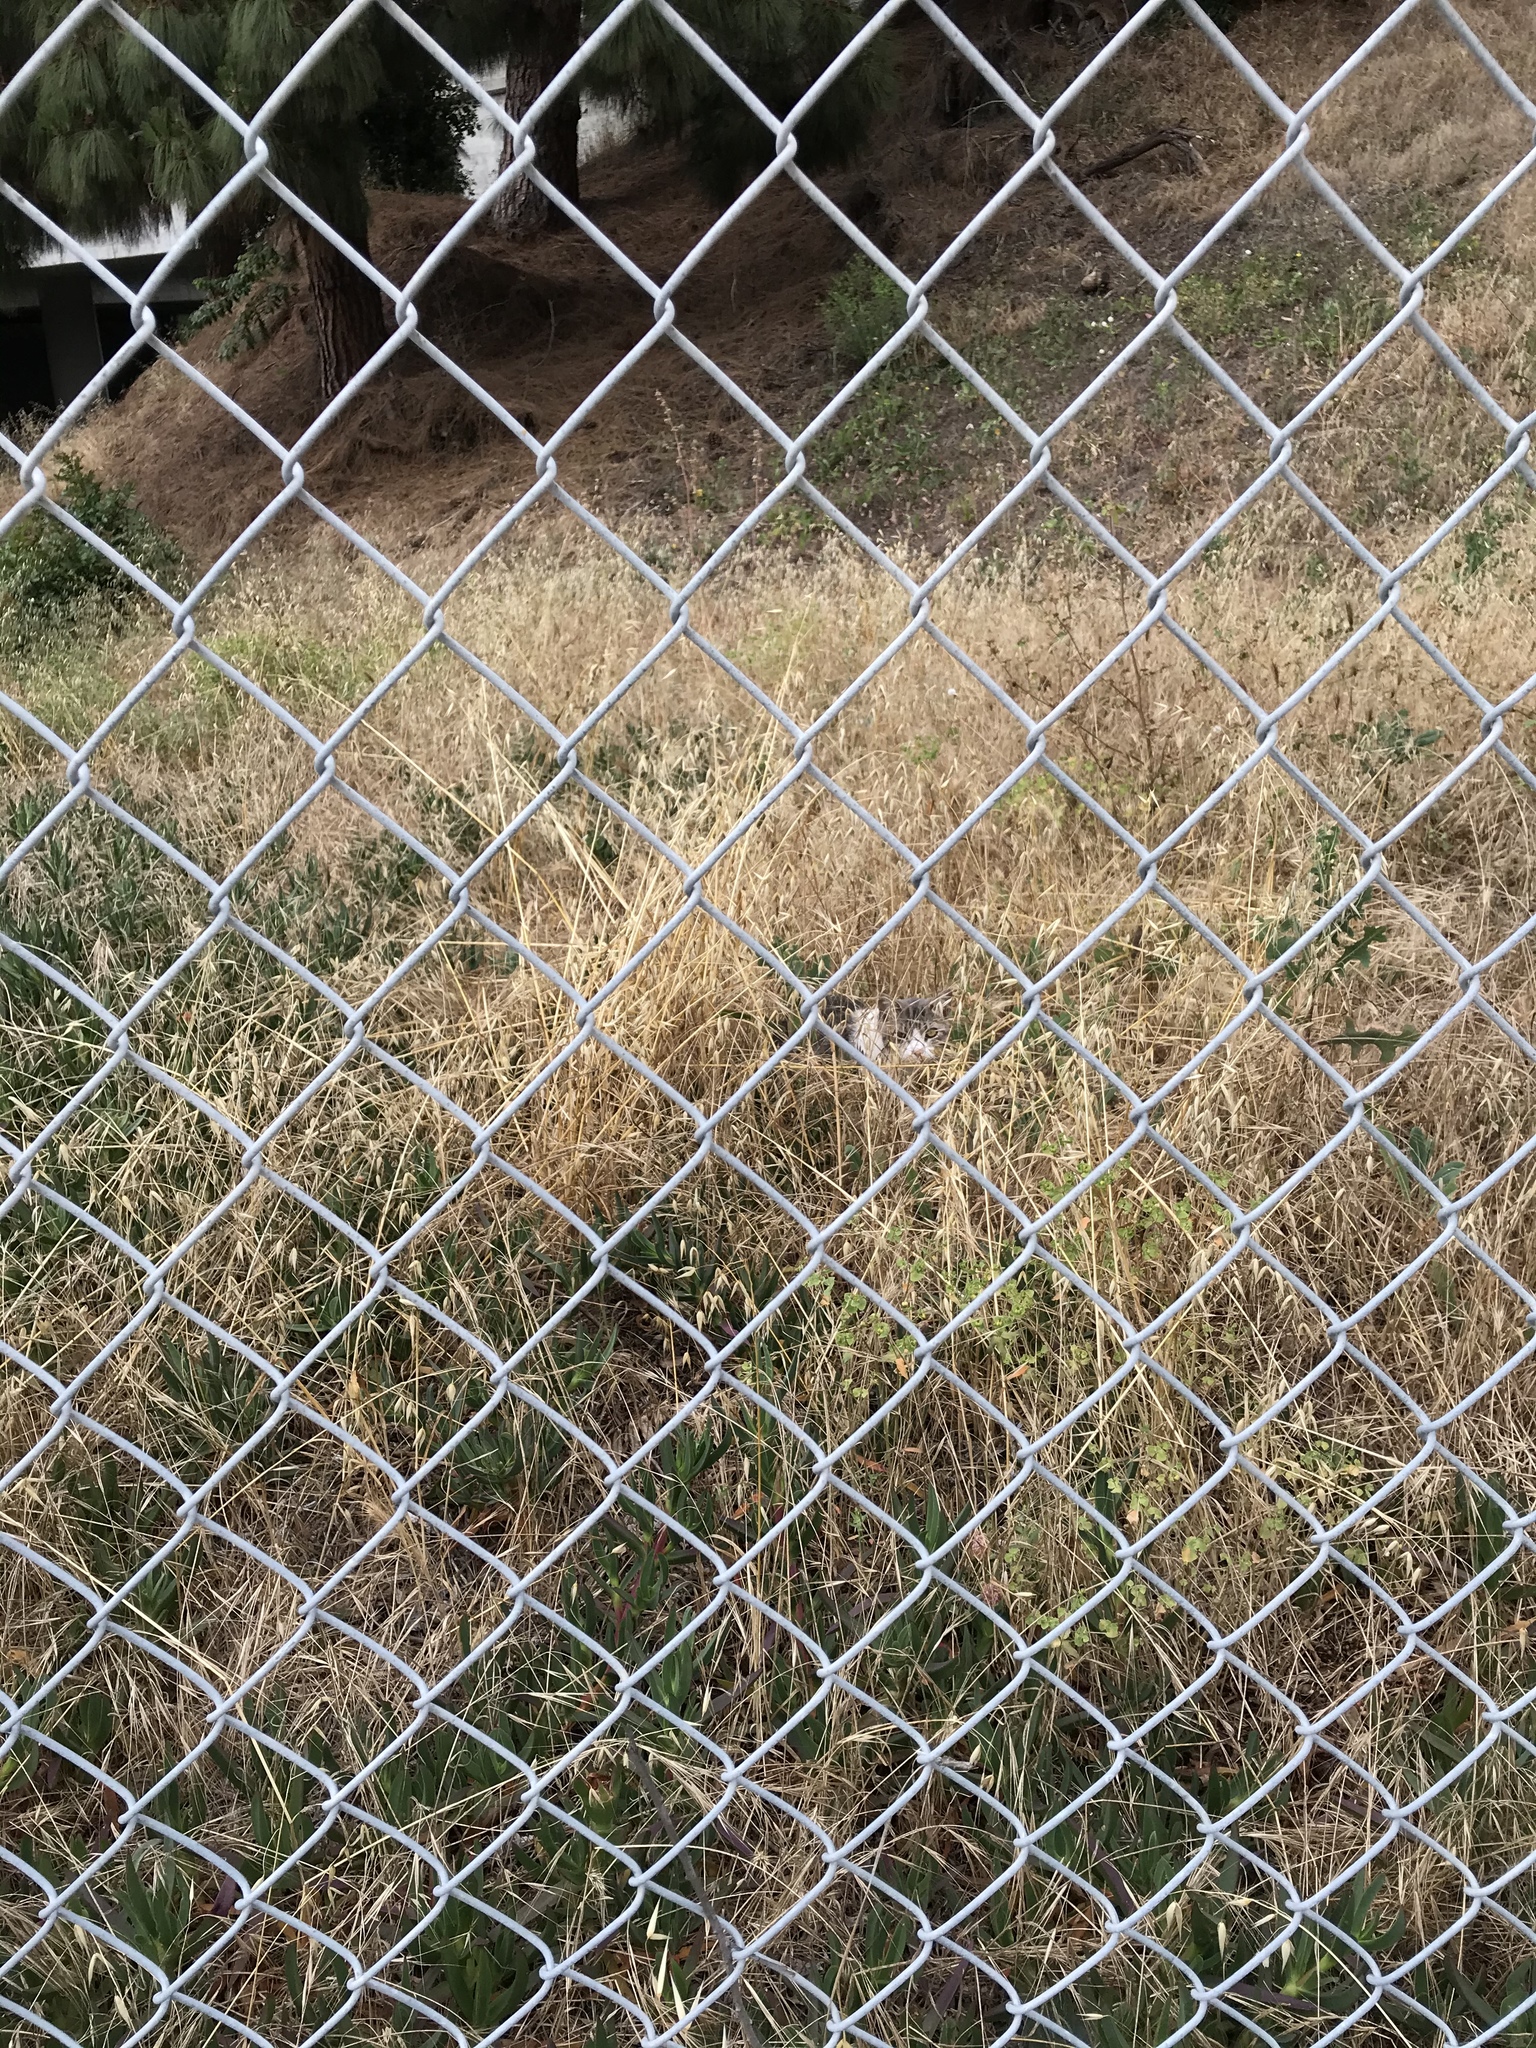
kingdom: Animalia
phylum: Chordata
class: Mammalia
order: Carnivora
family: Felidae
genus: Felis
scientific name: Felis catus
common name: Domestic cat
